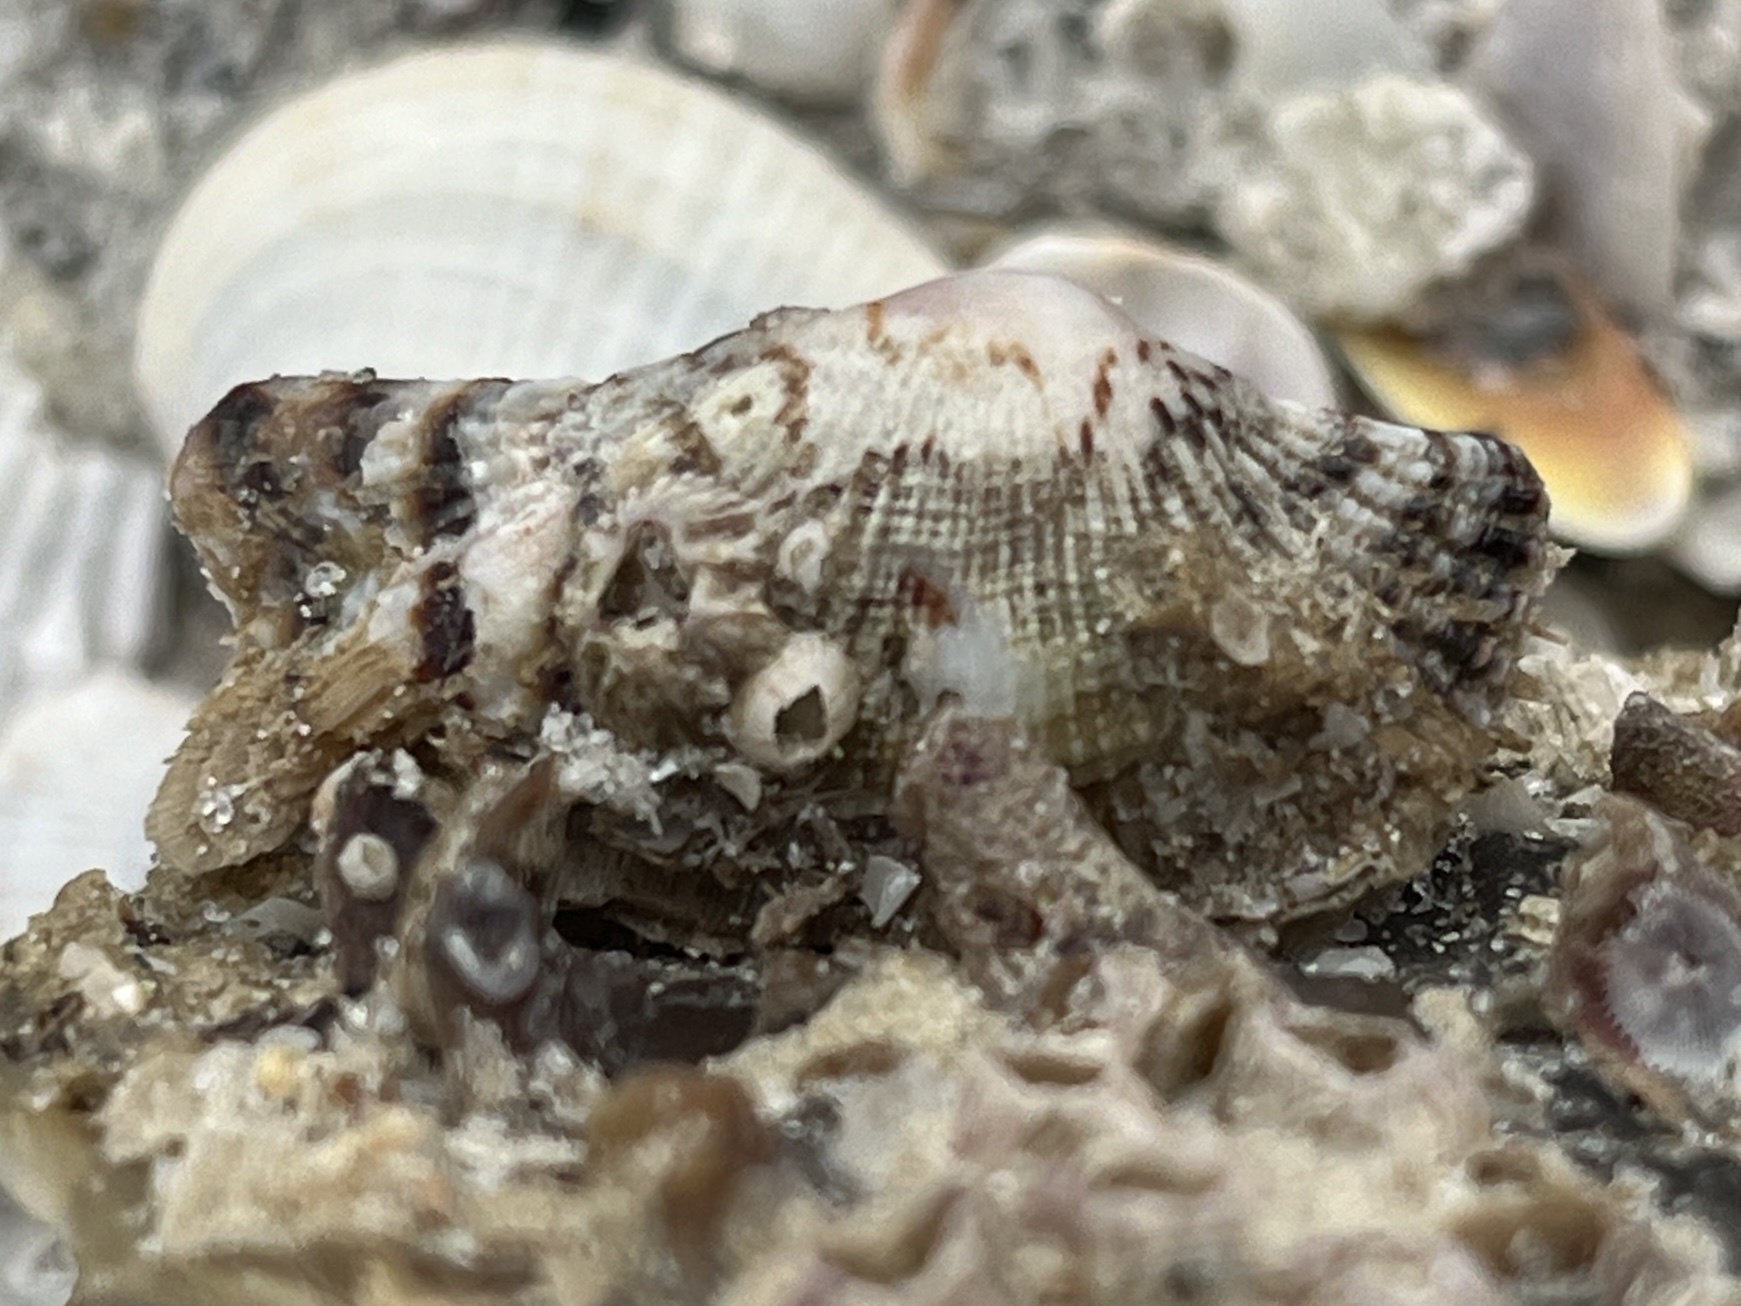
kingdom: Animalia
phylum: Mollusca
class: Bivalvia
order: Arcida
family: Arcidae
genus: Arca
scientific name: Arca zebra
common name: Atlantic turkey wing
